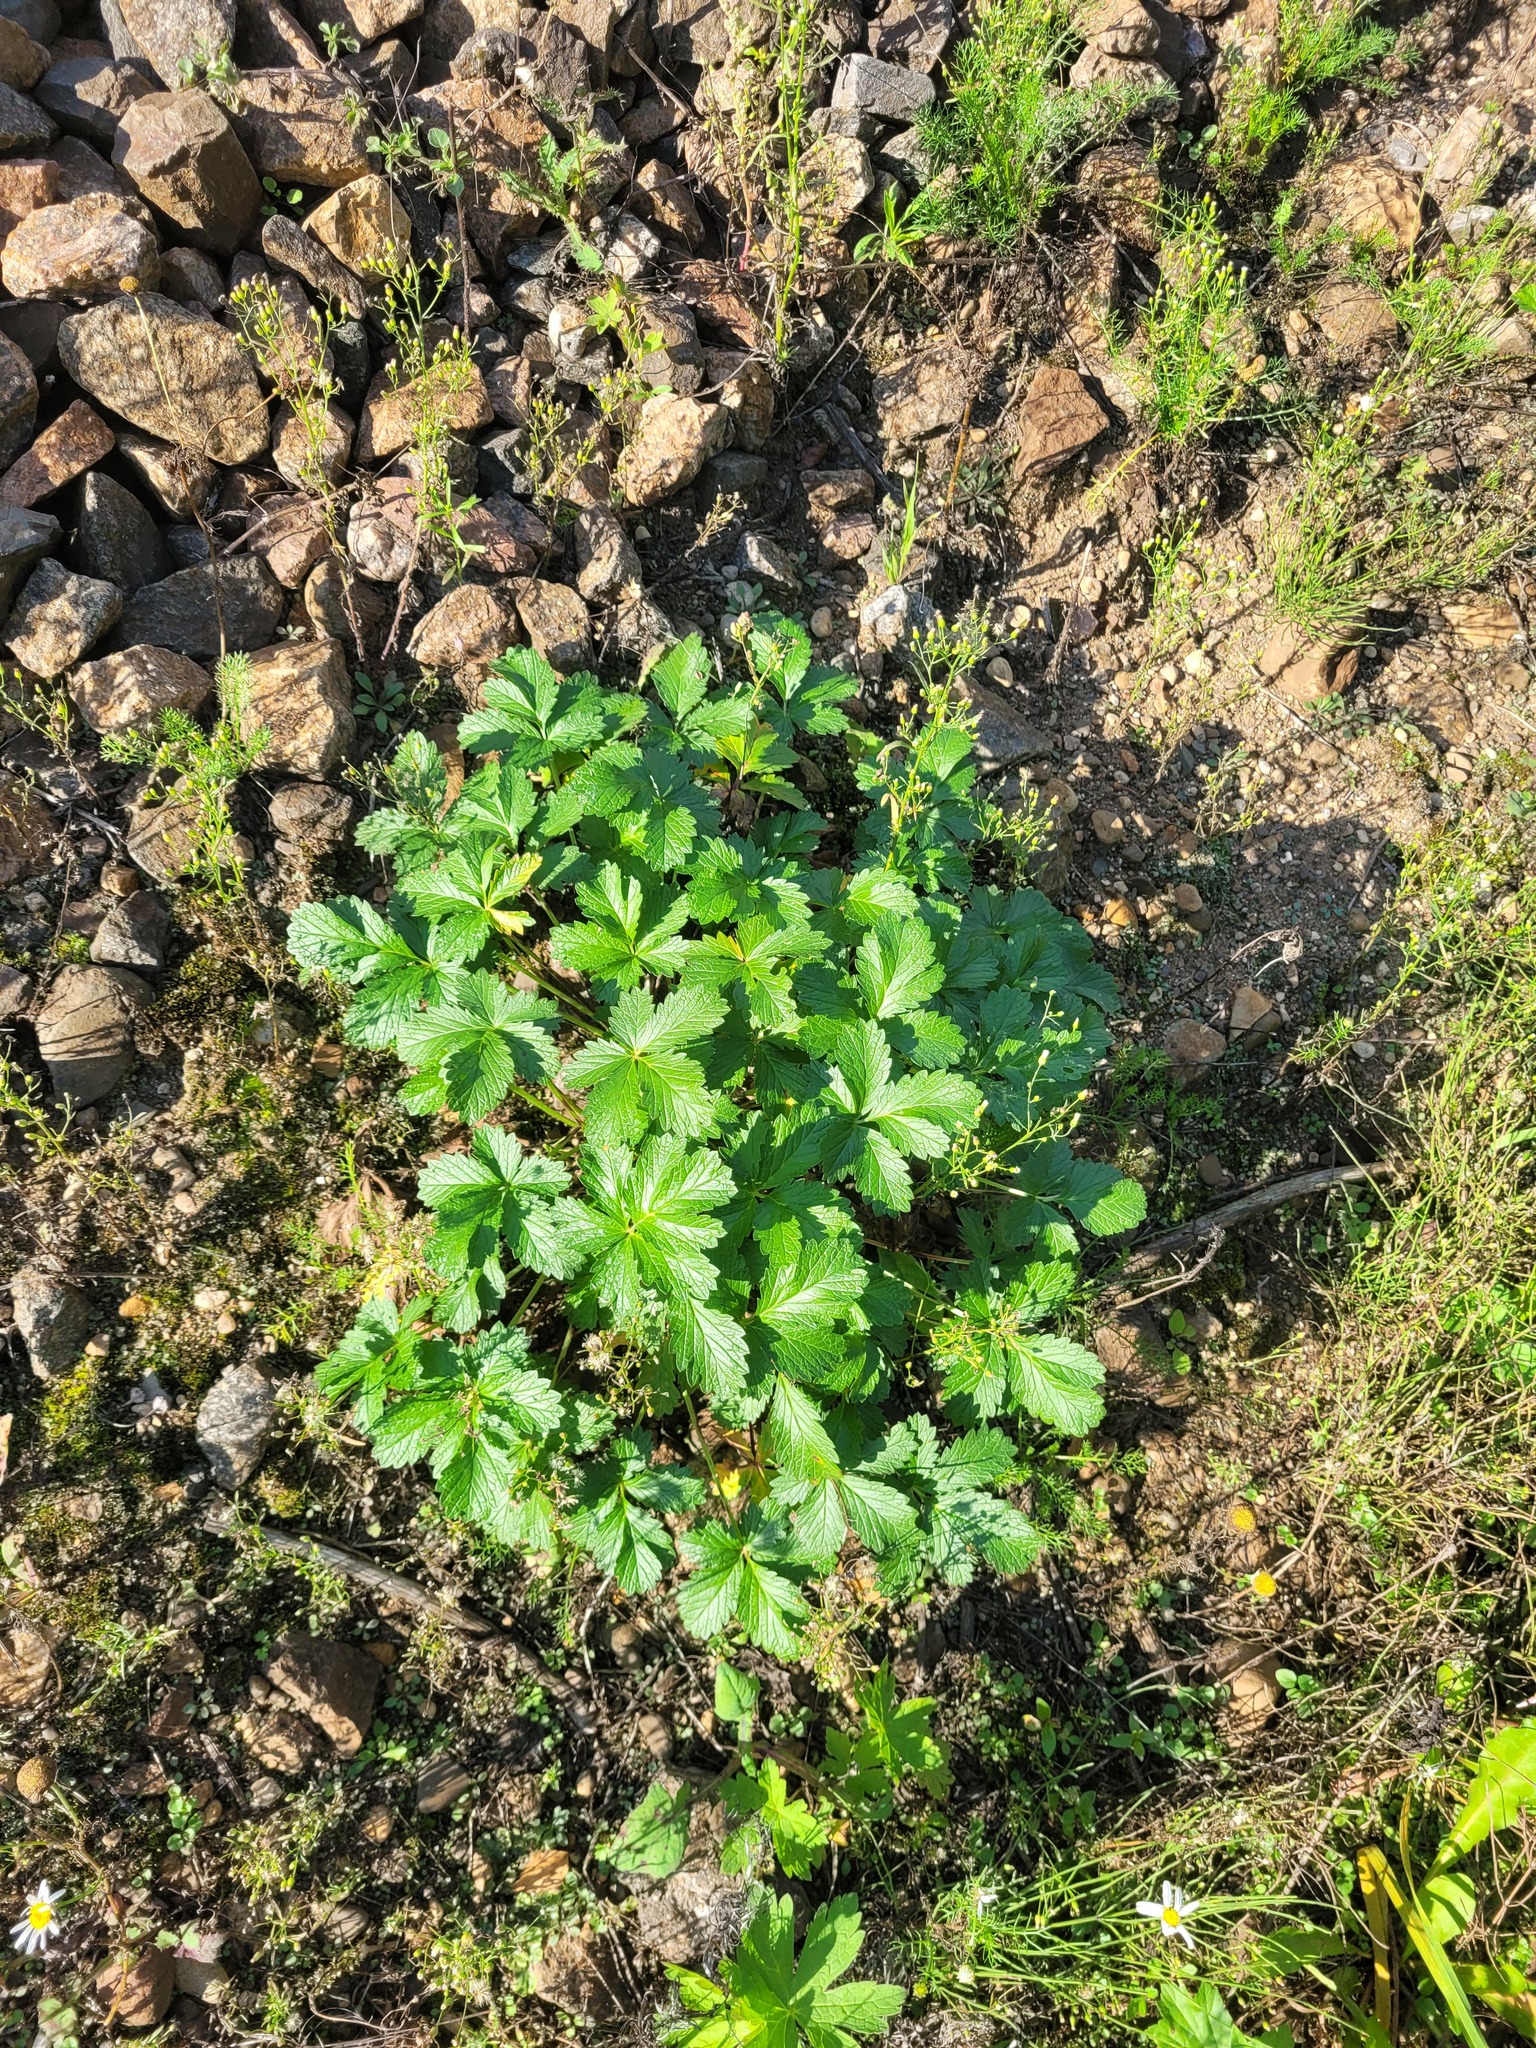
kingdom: Plantae
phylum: Tracheophyta
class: Magnoliopsida
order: Rosales
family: Rosaceae
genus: Potentilla
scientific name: Potentilla intermedia
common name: Downy cinquefoil
